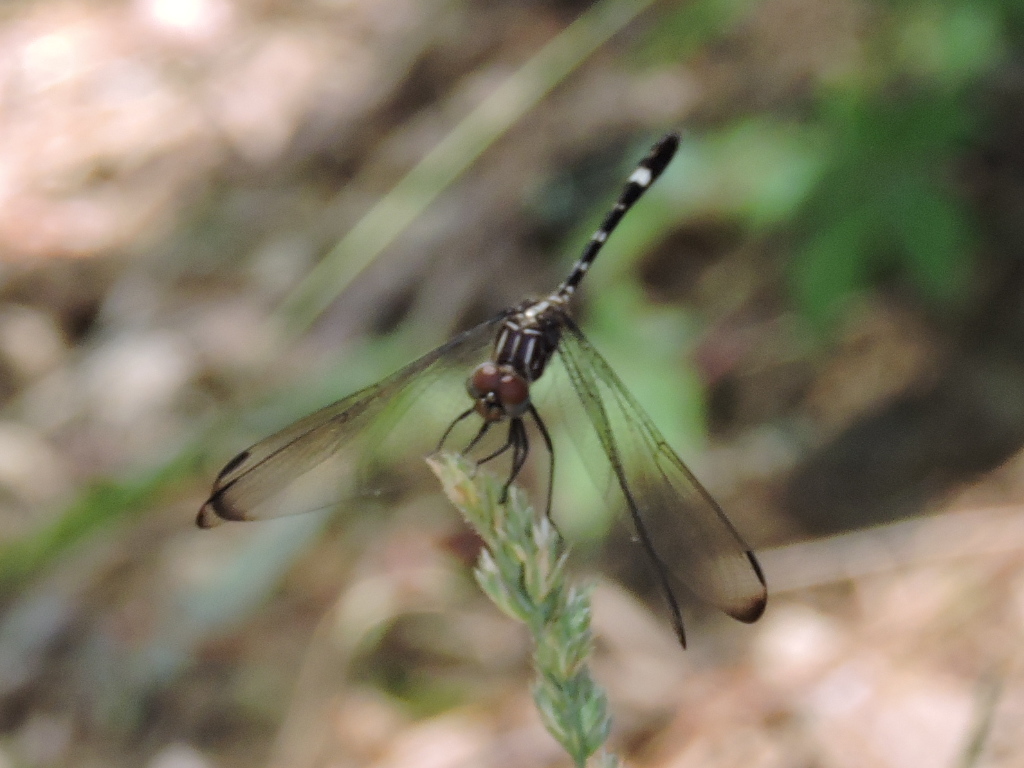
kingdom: Animalia
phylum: Arthropoda
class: Insecta
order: Odonata
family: Libellulidae
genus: Dythemis
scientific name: Dythemis velox
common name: Swift setwing
